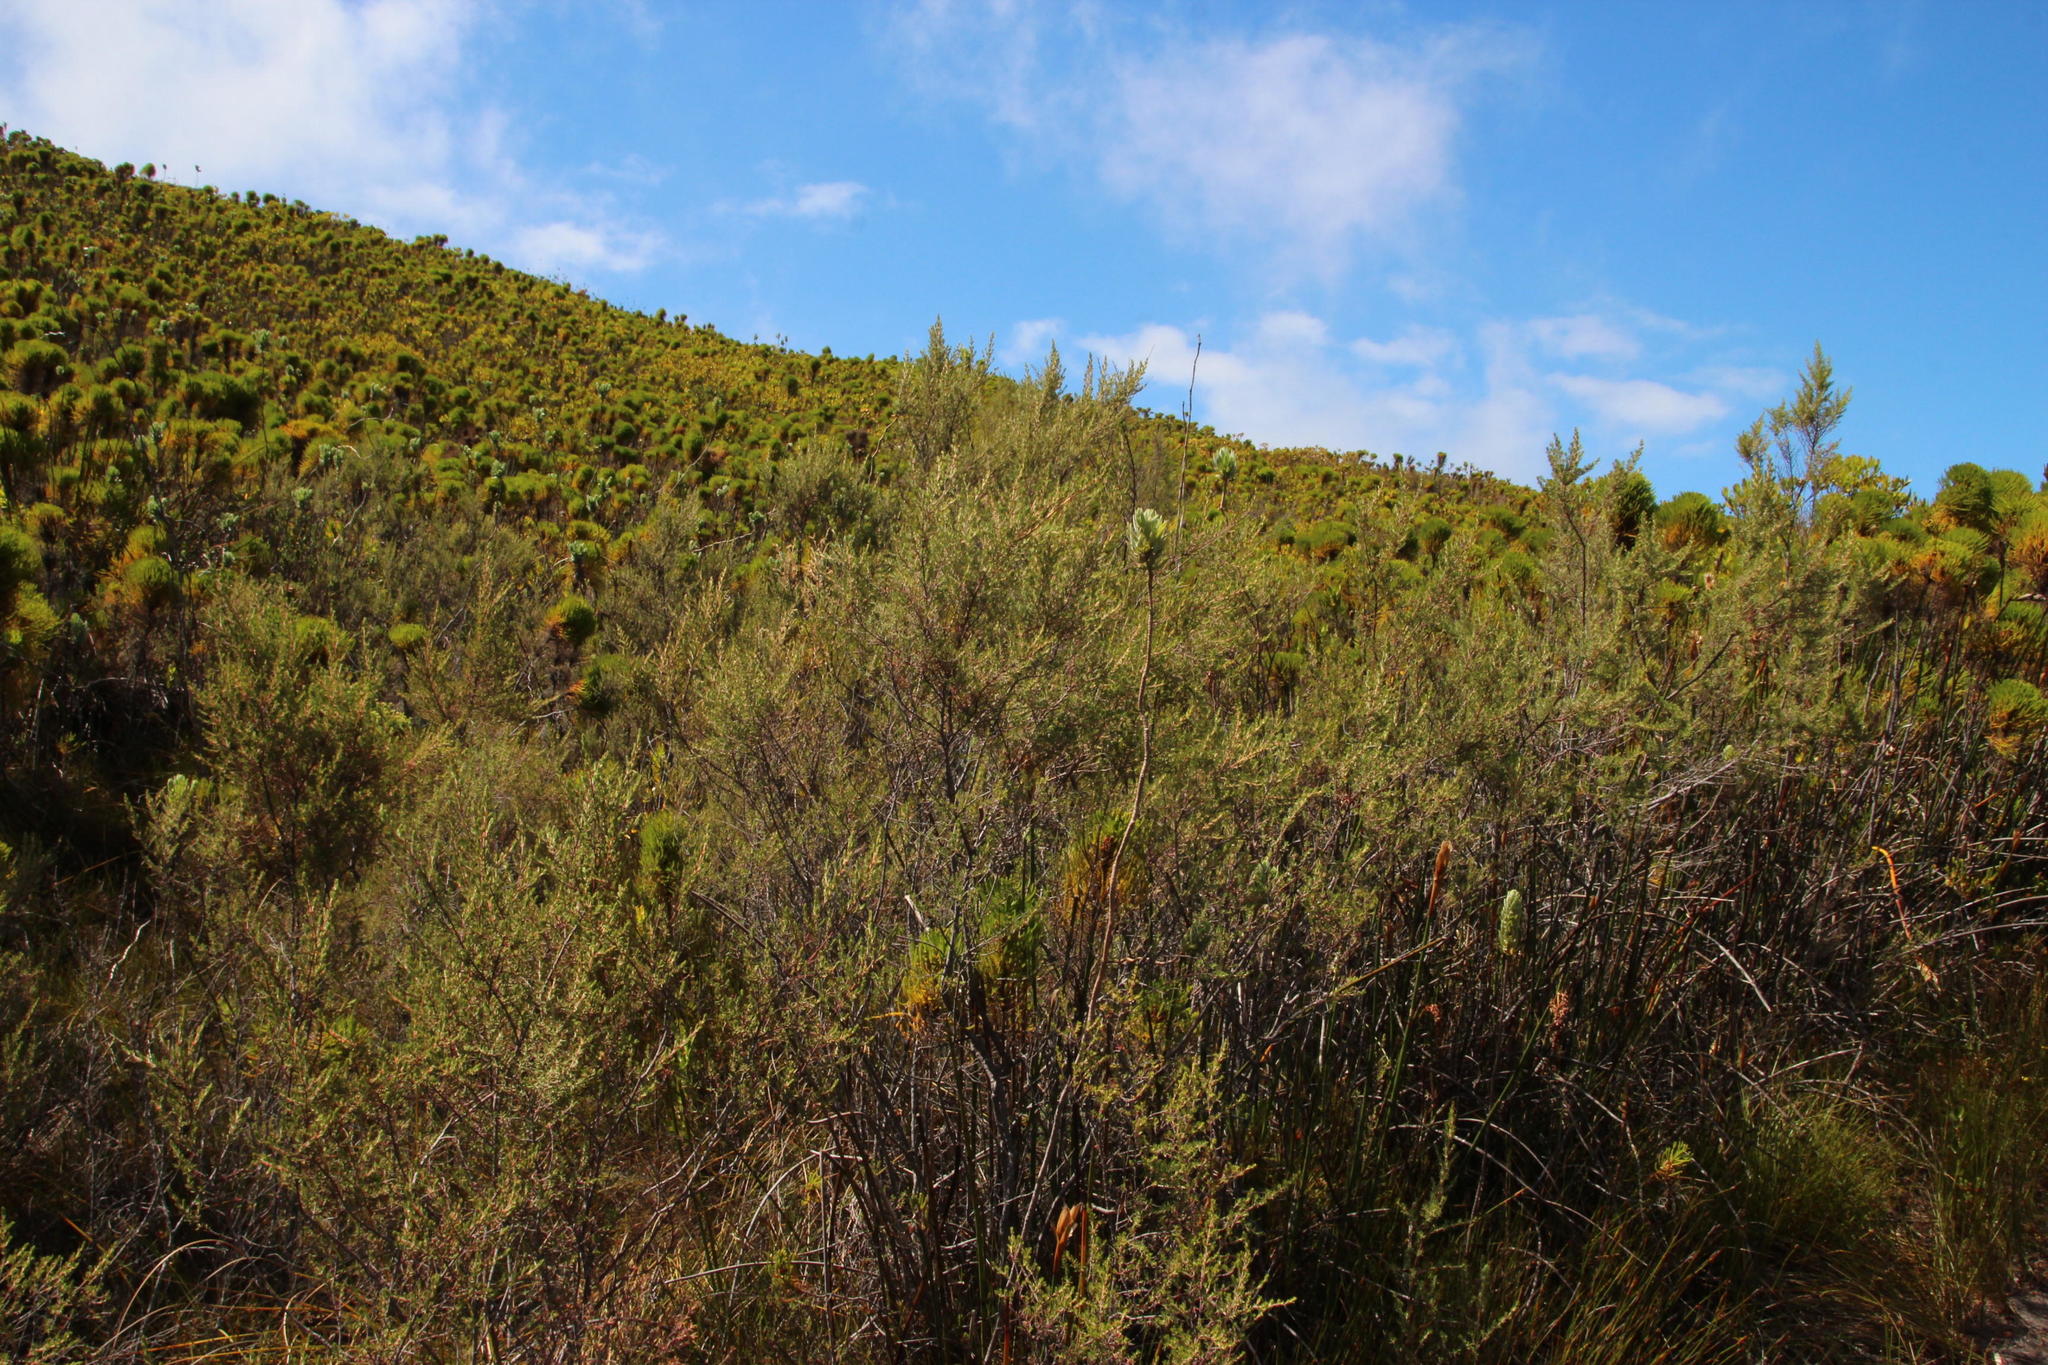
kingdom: Plantae
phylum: Tracheophyta
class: Magnoliopsida
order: Cornales
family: Grubbiaceae
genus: Grubbia
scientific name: Grubbia rosmarinifolia
